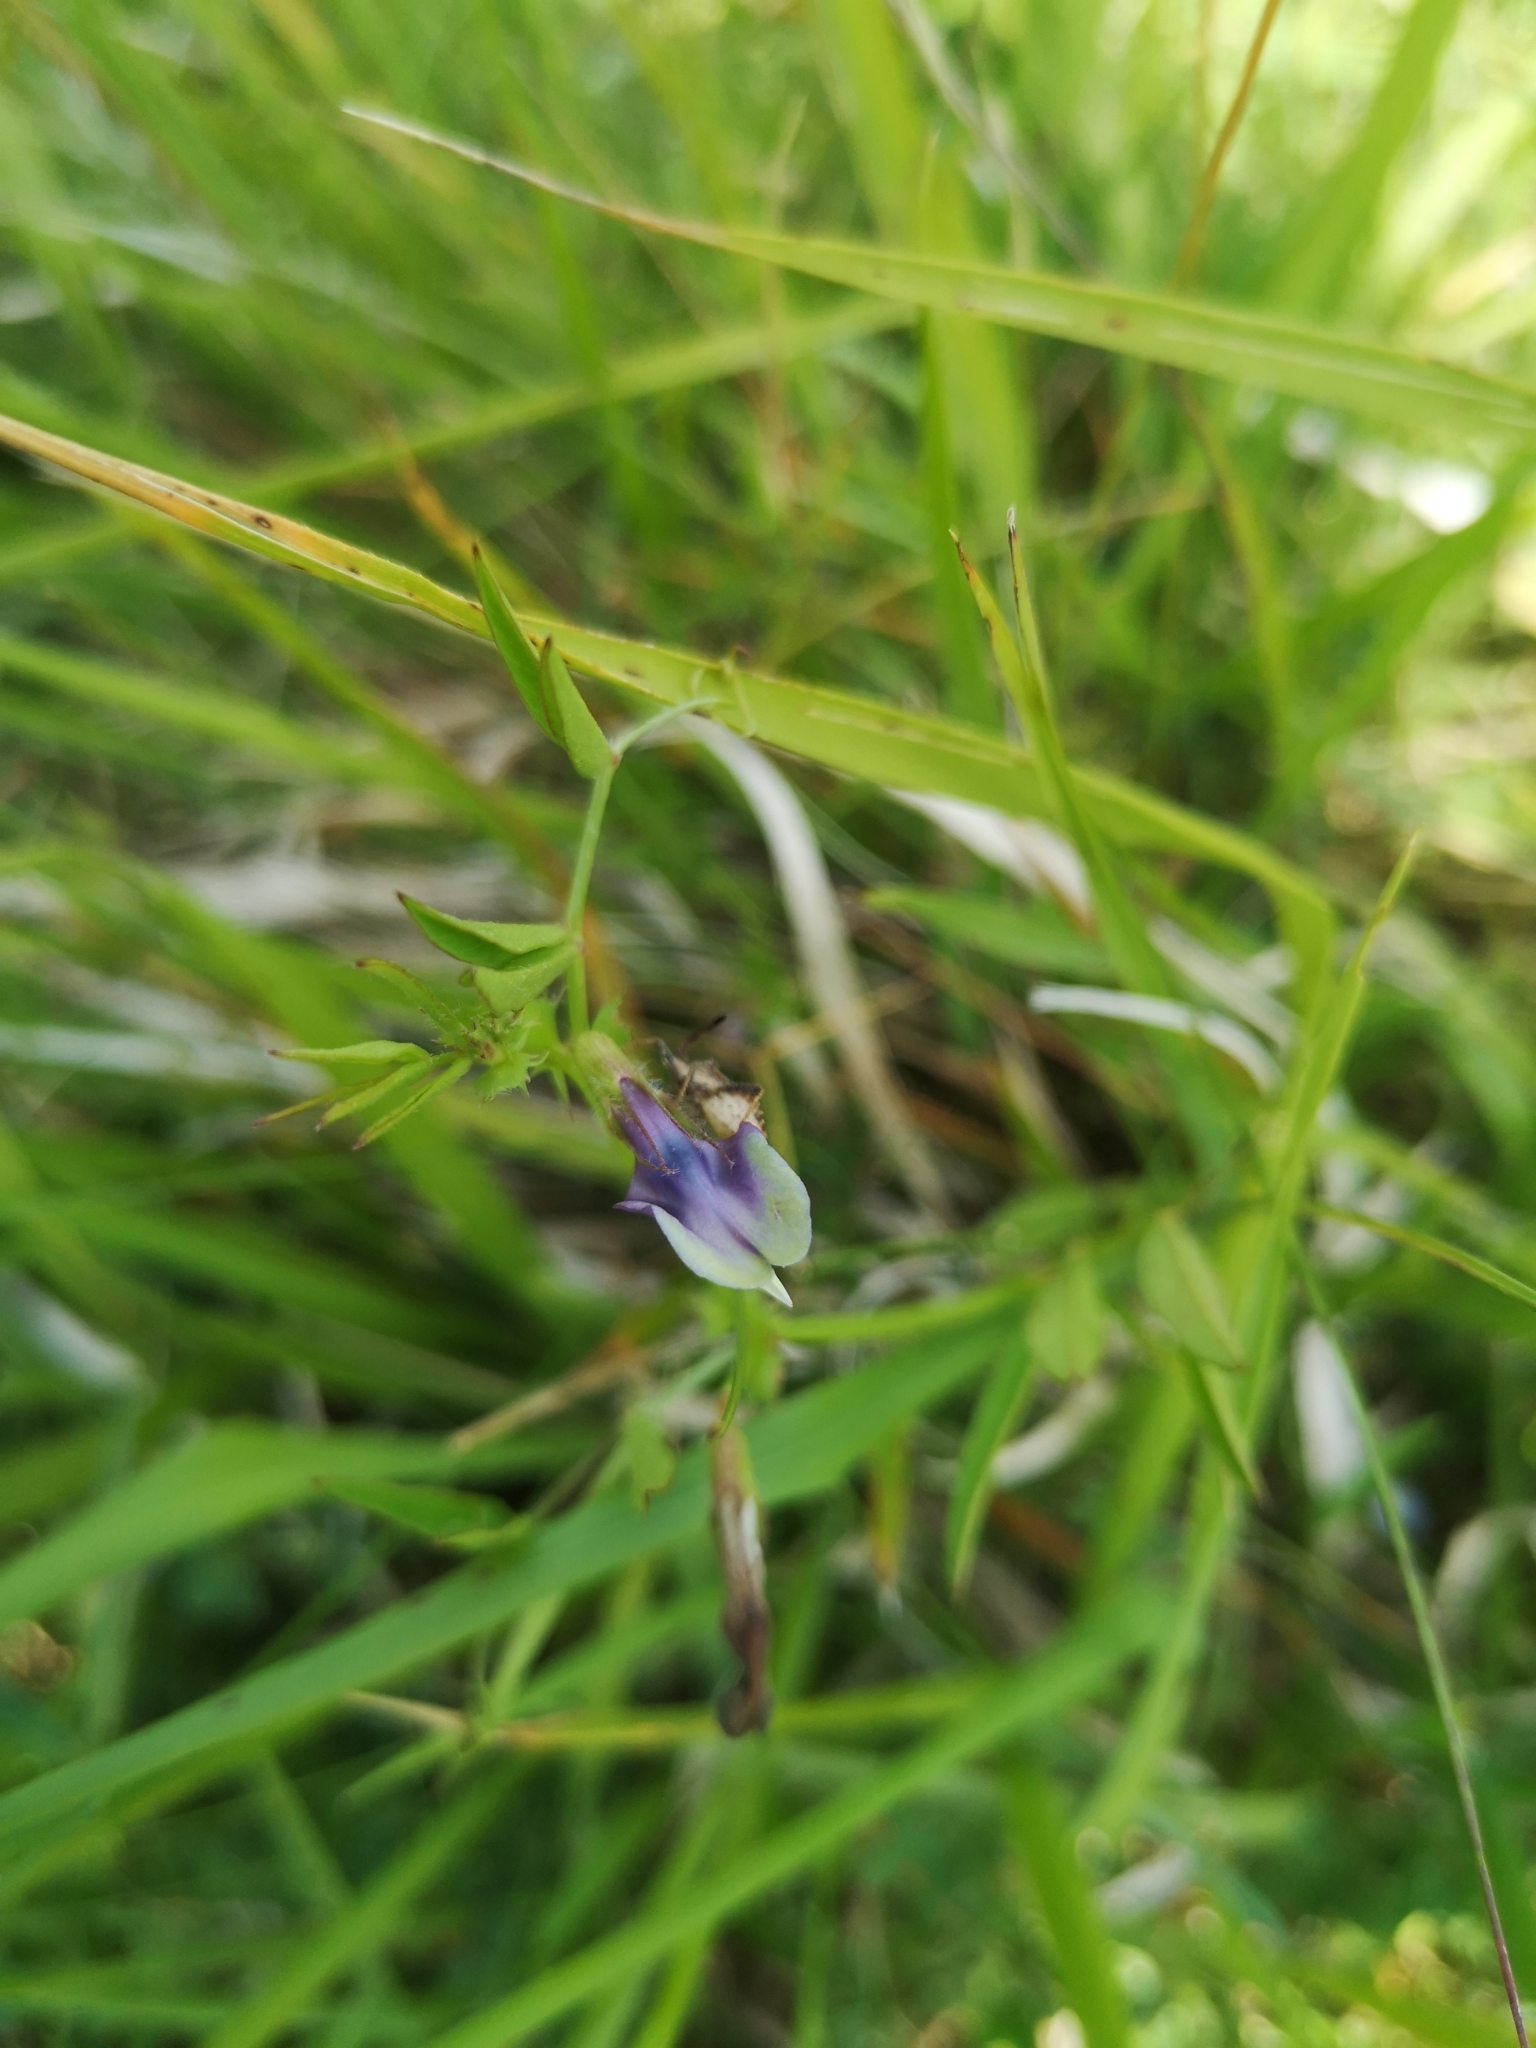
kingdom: Plantae
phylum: Tracheophyta
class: Magnoliopsida
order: Fabales
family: Fabaceae
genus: Vicia
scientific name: Vicia bithynica
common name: Bithynian vetch
